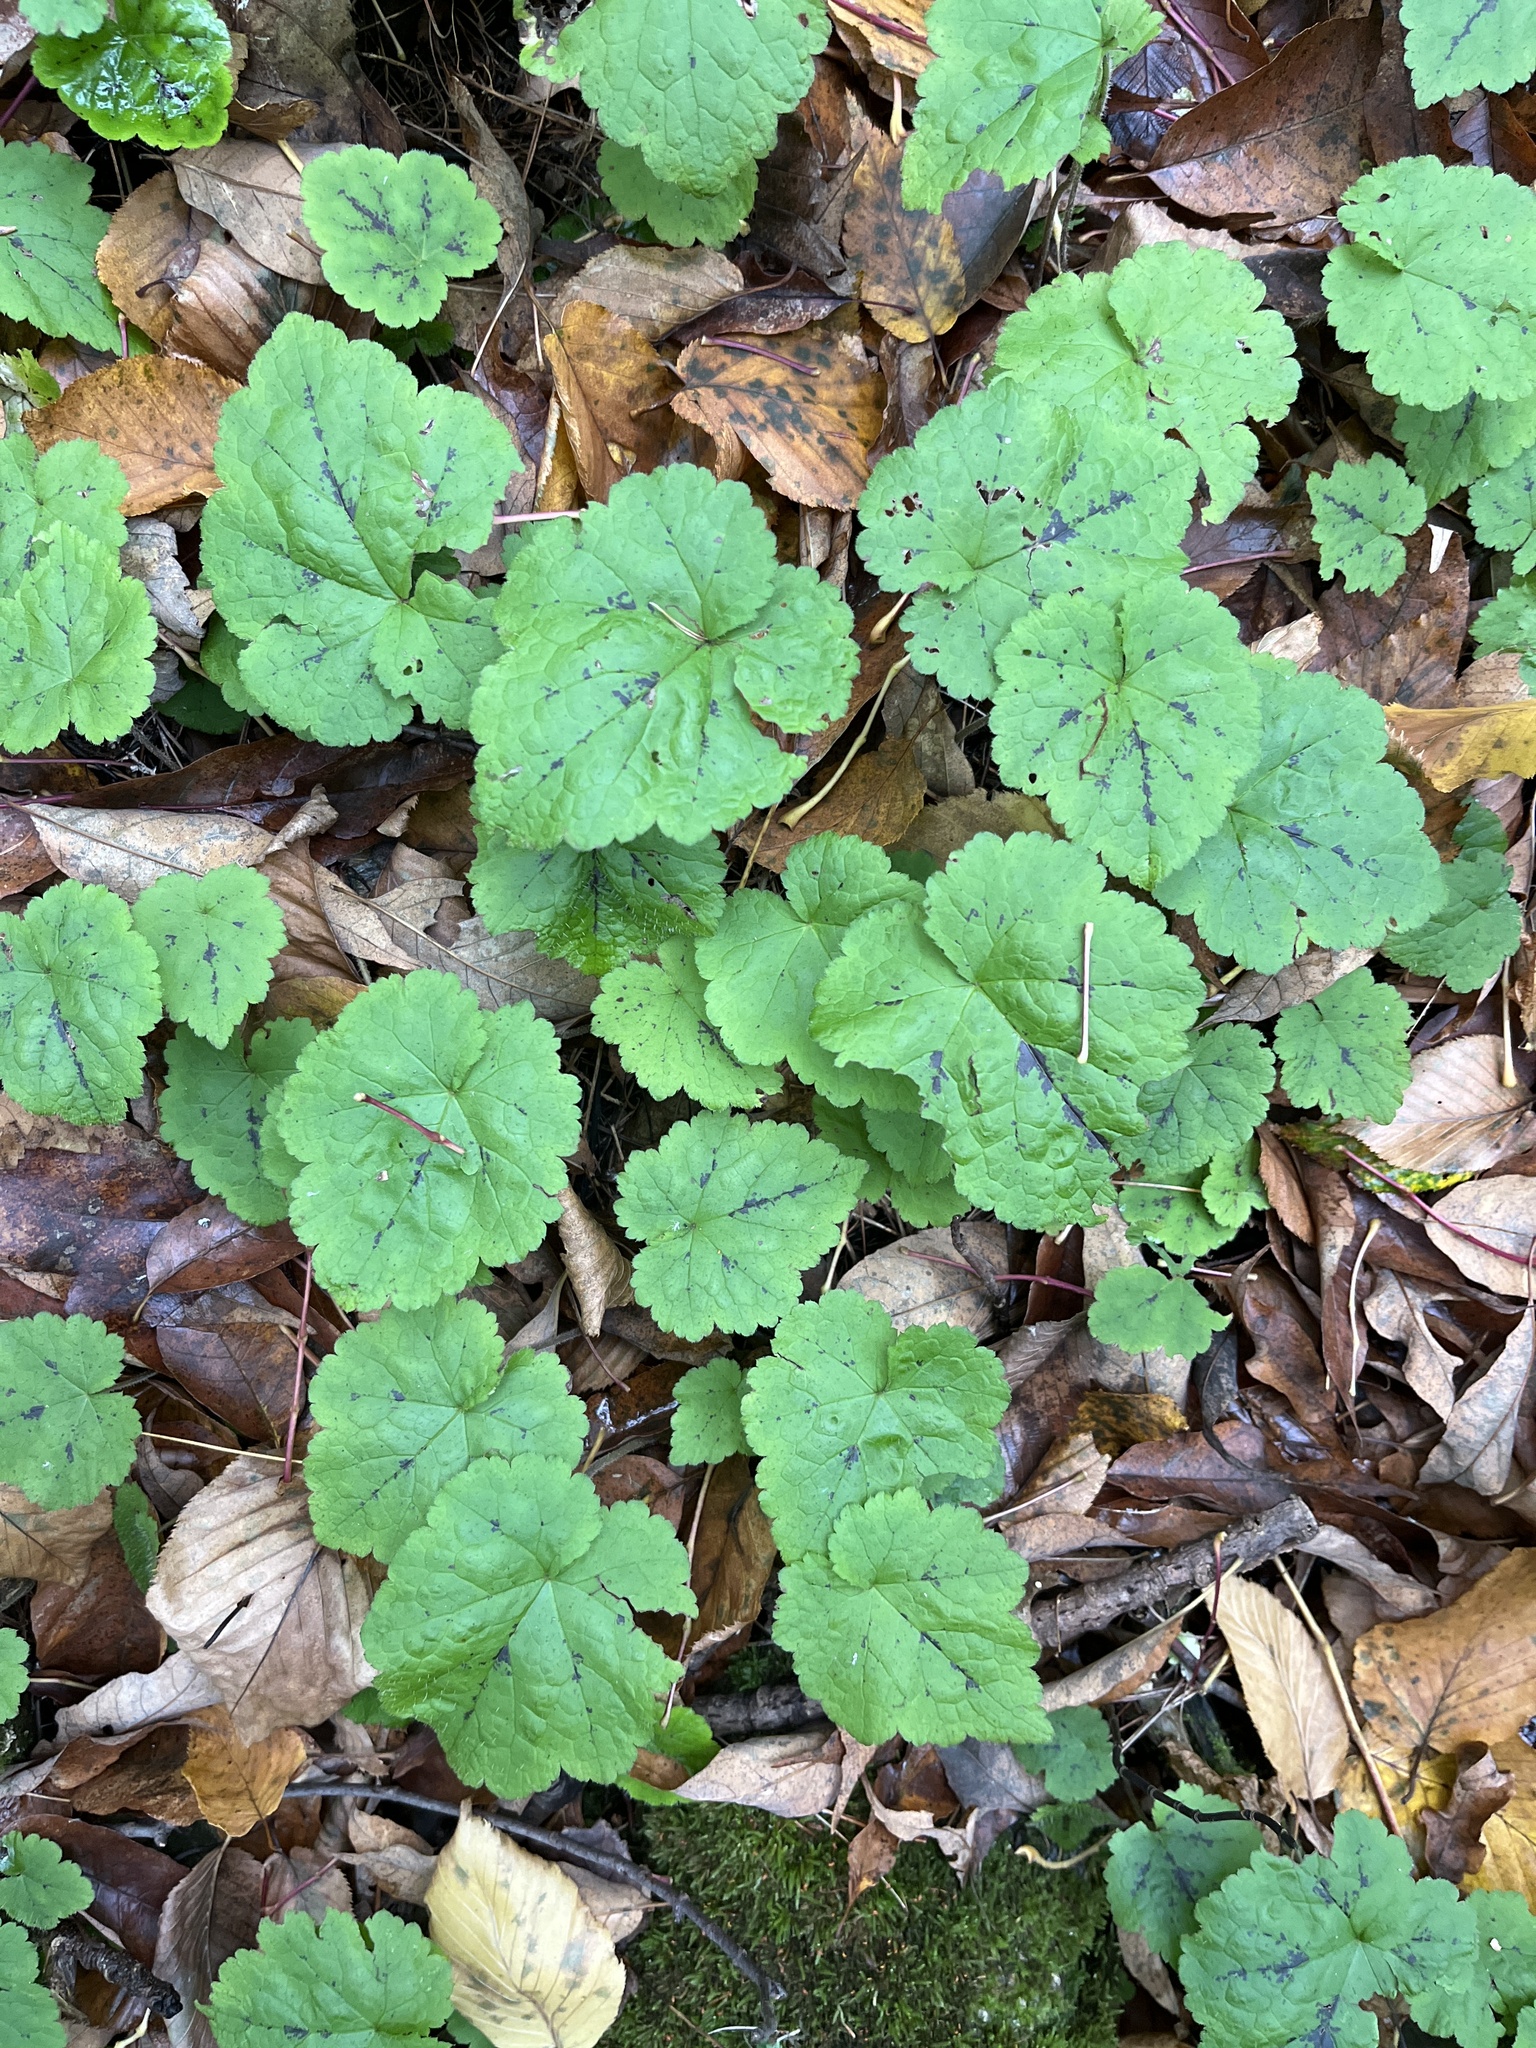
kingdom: Plantae
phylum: Tracheophyta
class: Magnoliopsida
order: Saxifragales
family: Saxifragaceae
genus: Tiarella
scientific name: Tiarella stolonifera
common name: Stoloniferous foamflower
